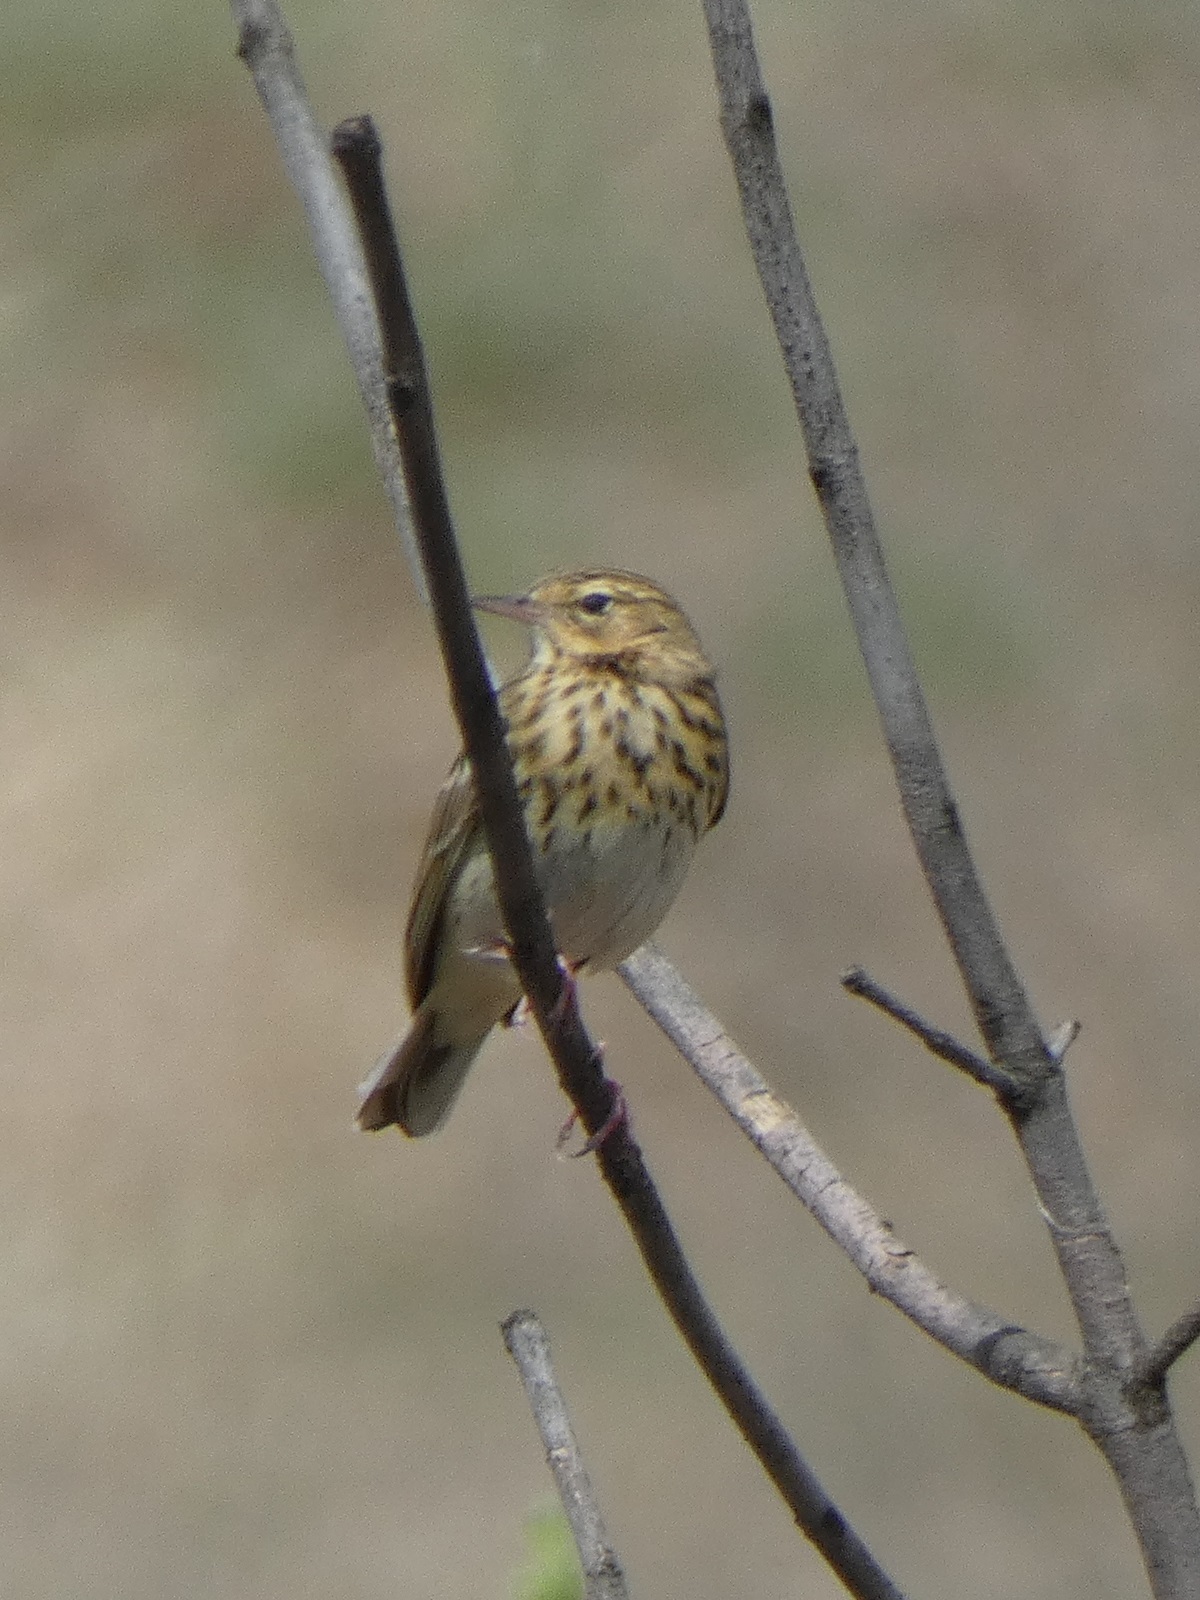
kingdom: Animalia
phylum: Chordata
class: Aves
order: Passeriformes
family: Motacillidae
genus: Anthus
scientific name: Anthus trivialis
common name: Tree pipit
